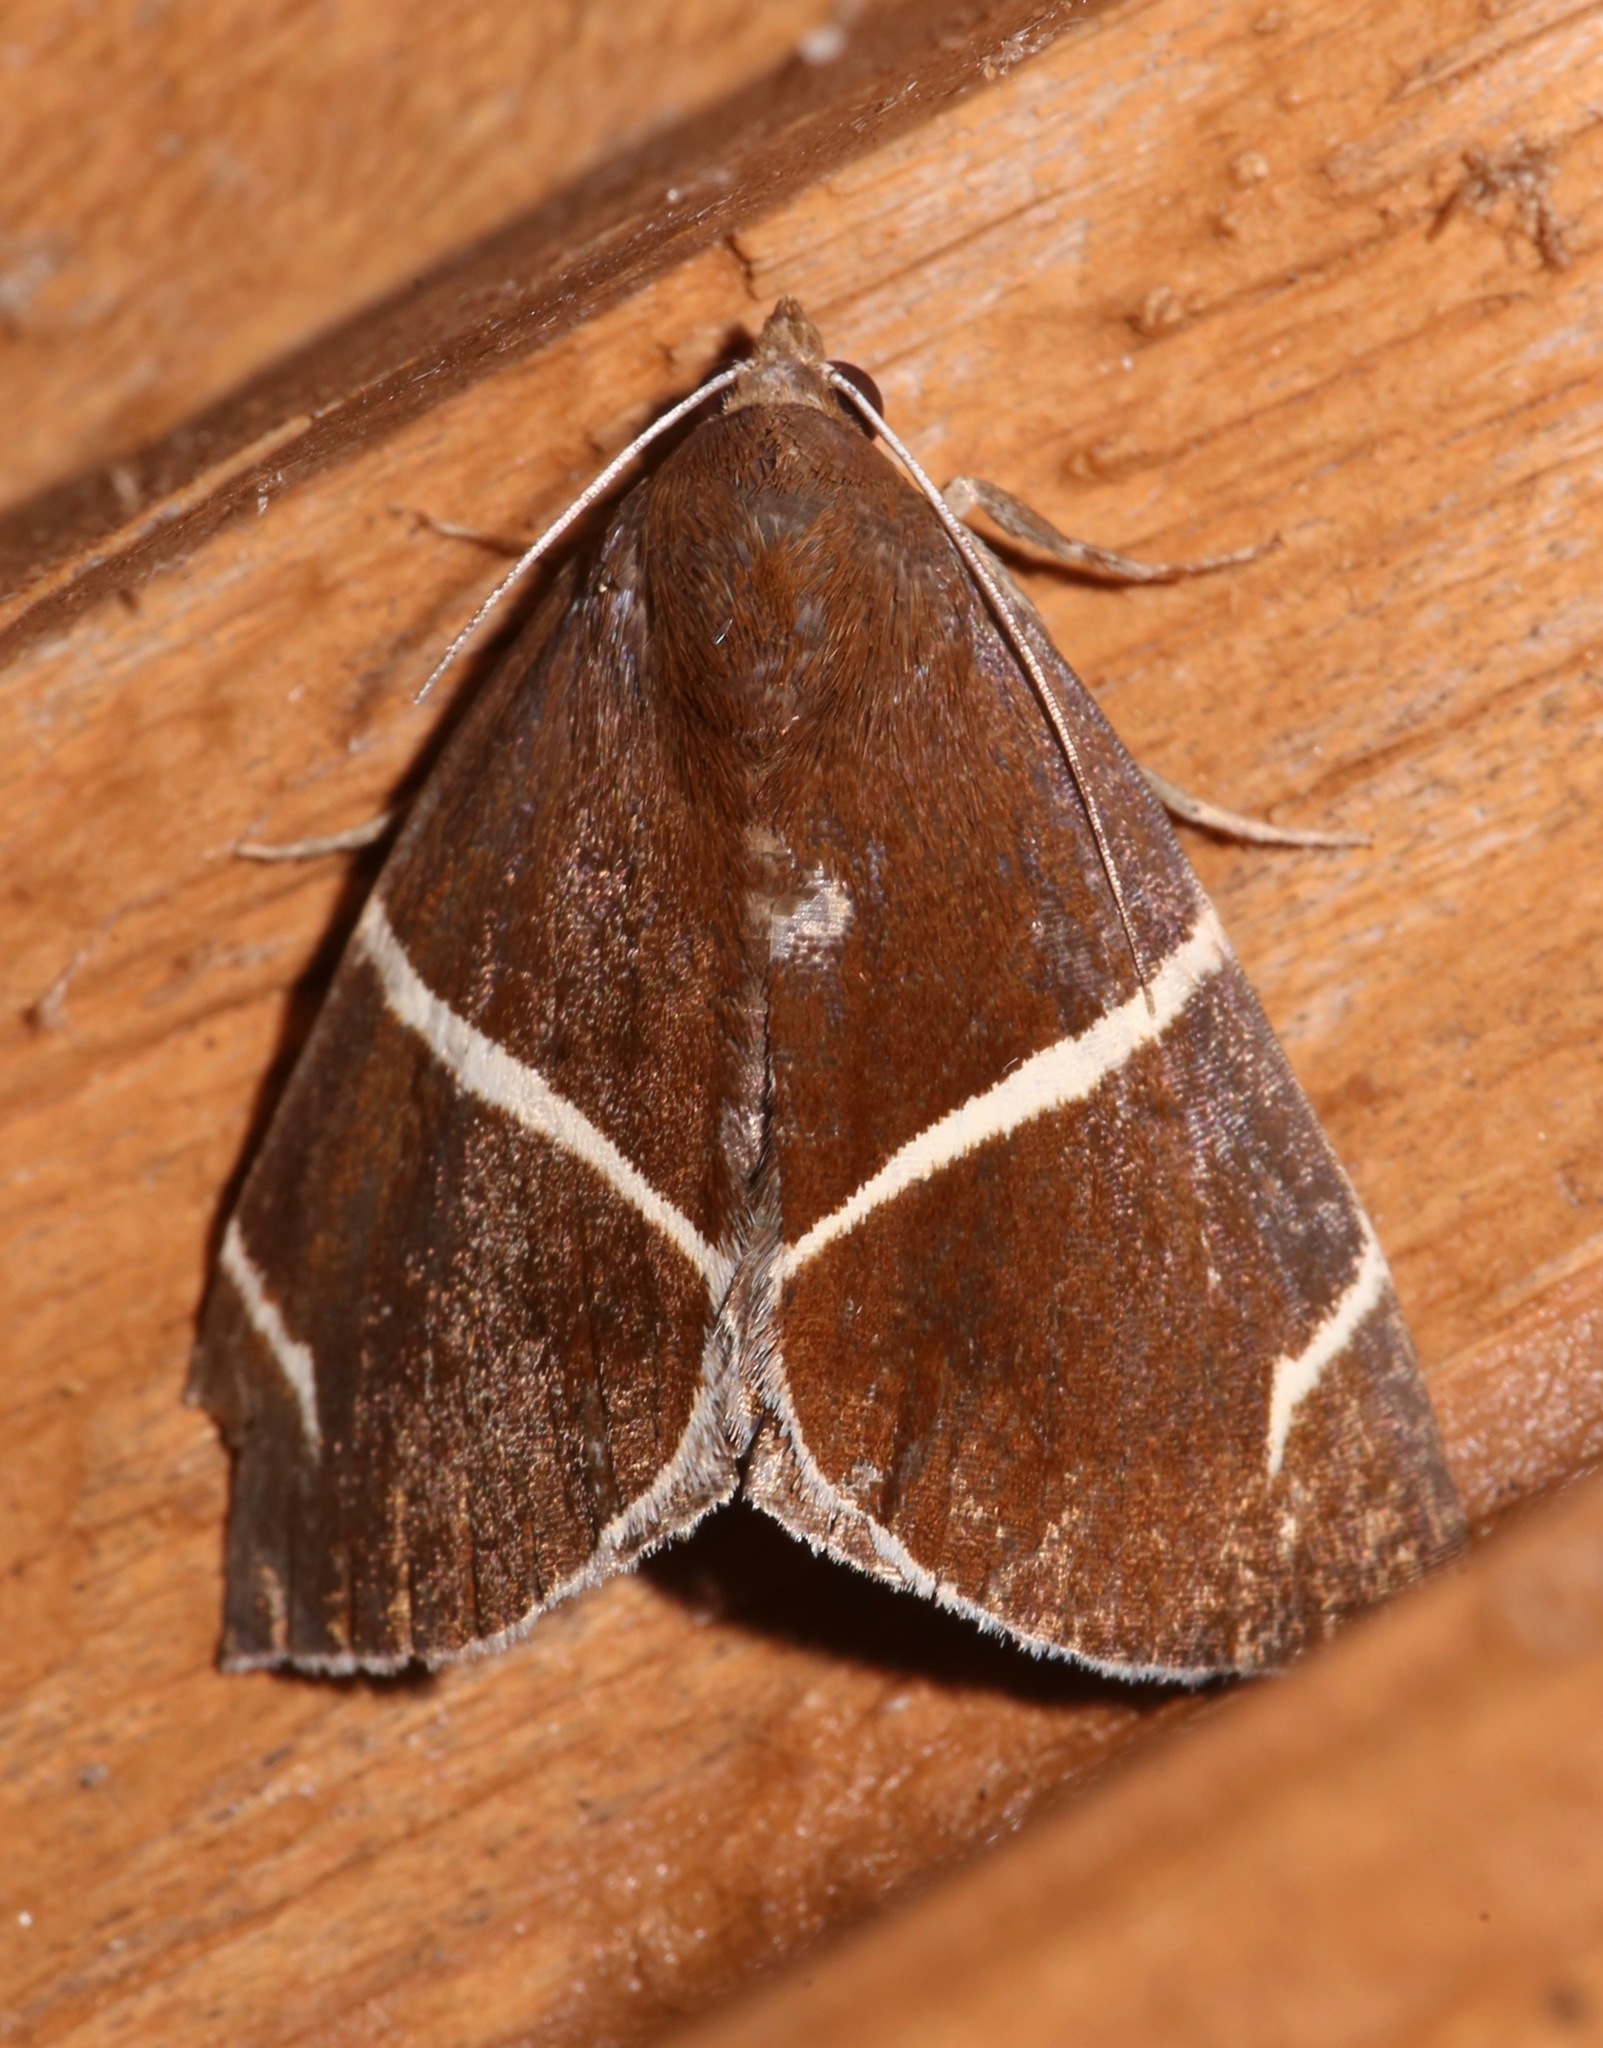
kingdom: Animalia
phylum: Arthropoda
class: Insecta
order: Lepidoptera
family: Erebidae
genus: Argyrostrotis
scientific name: Argyrostrotis anilis
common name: Short-lined chocolate
